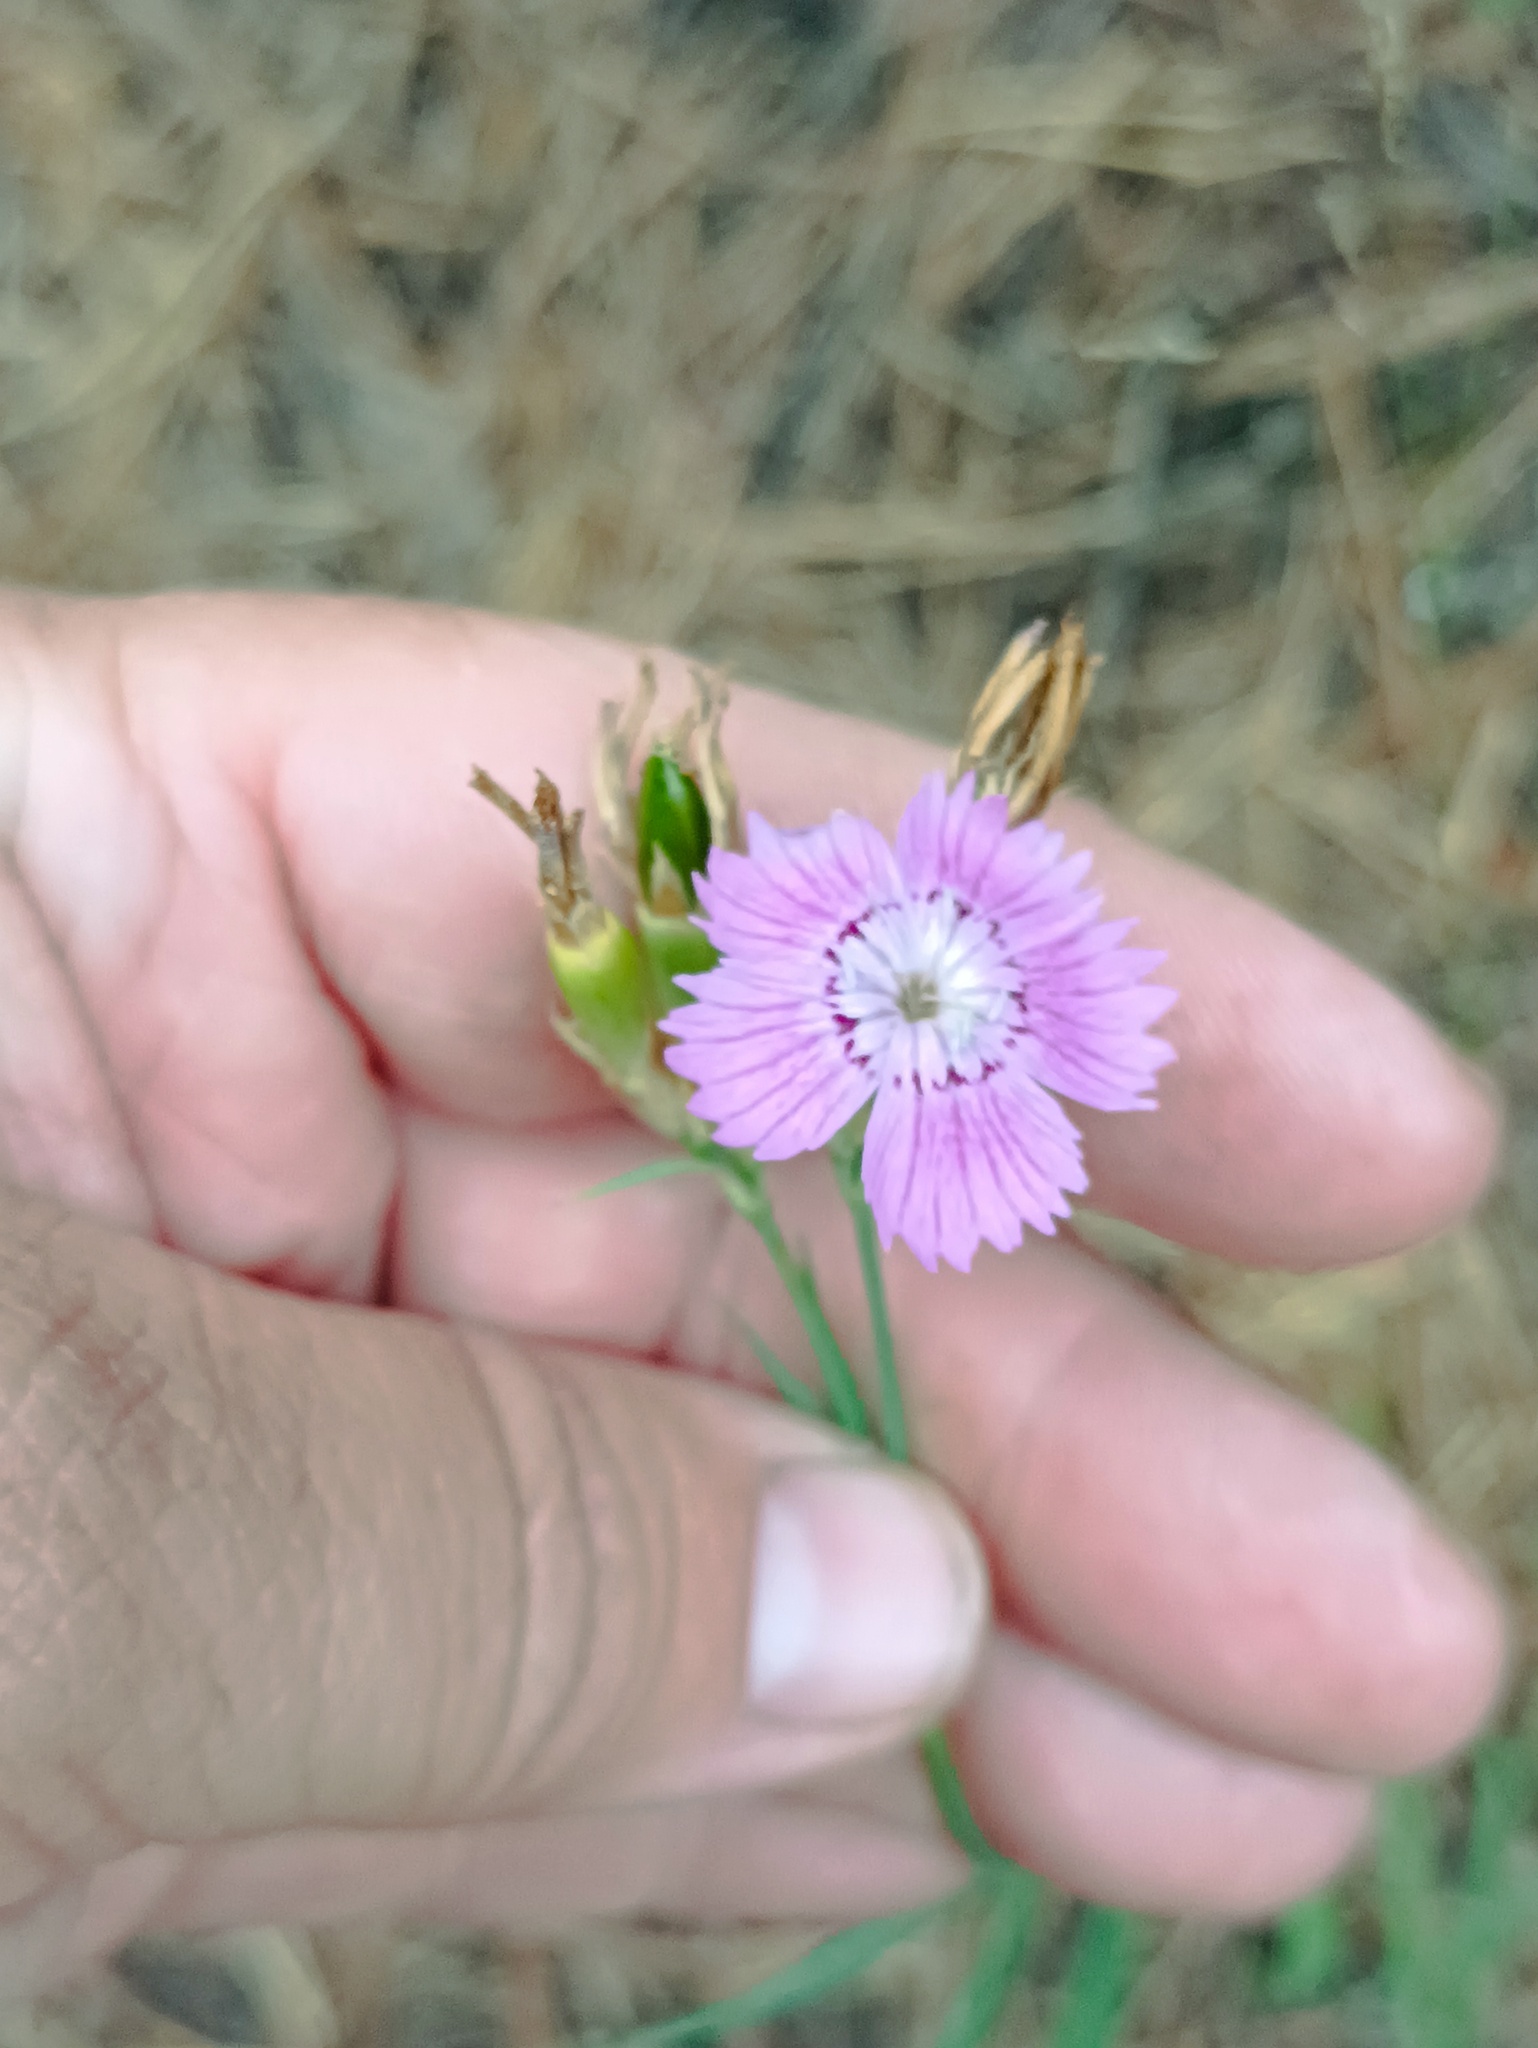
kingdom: Plantae
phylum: Tracheophyta
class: Magnoliopsida
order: Caryophyllales
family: Caryophyllaceae
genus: Dianthus
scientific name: Dianthus chinensis
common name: Rainbow pink
